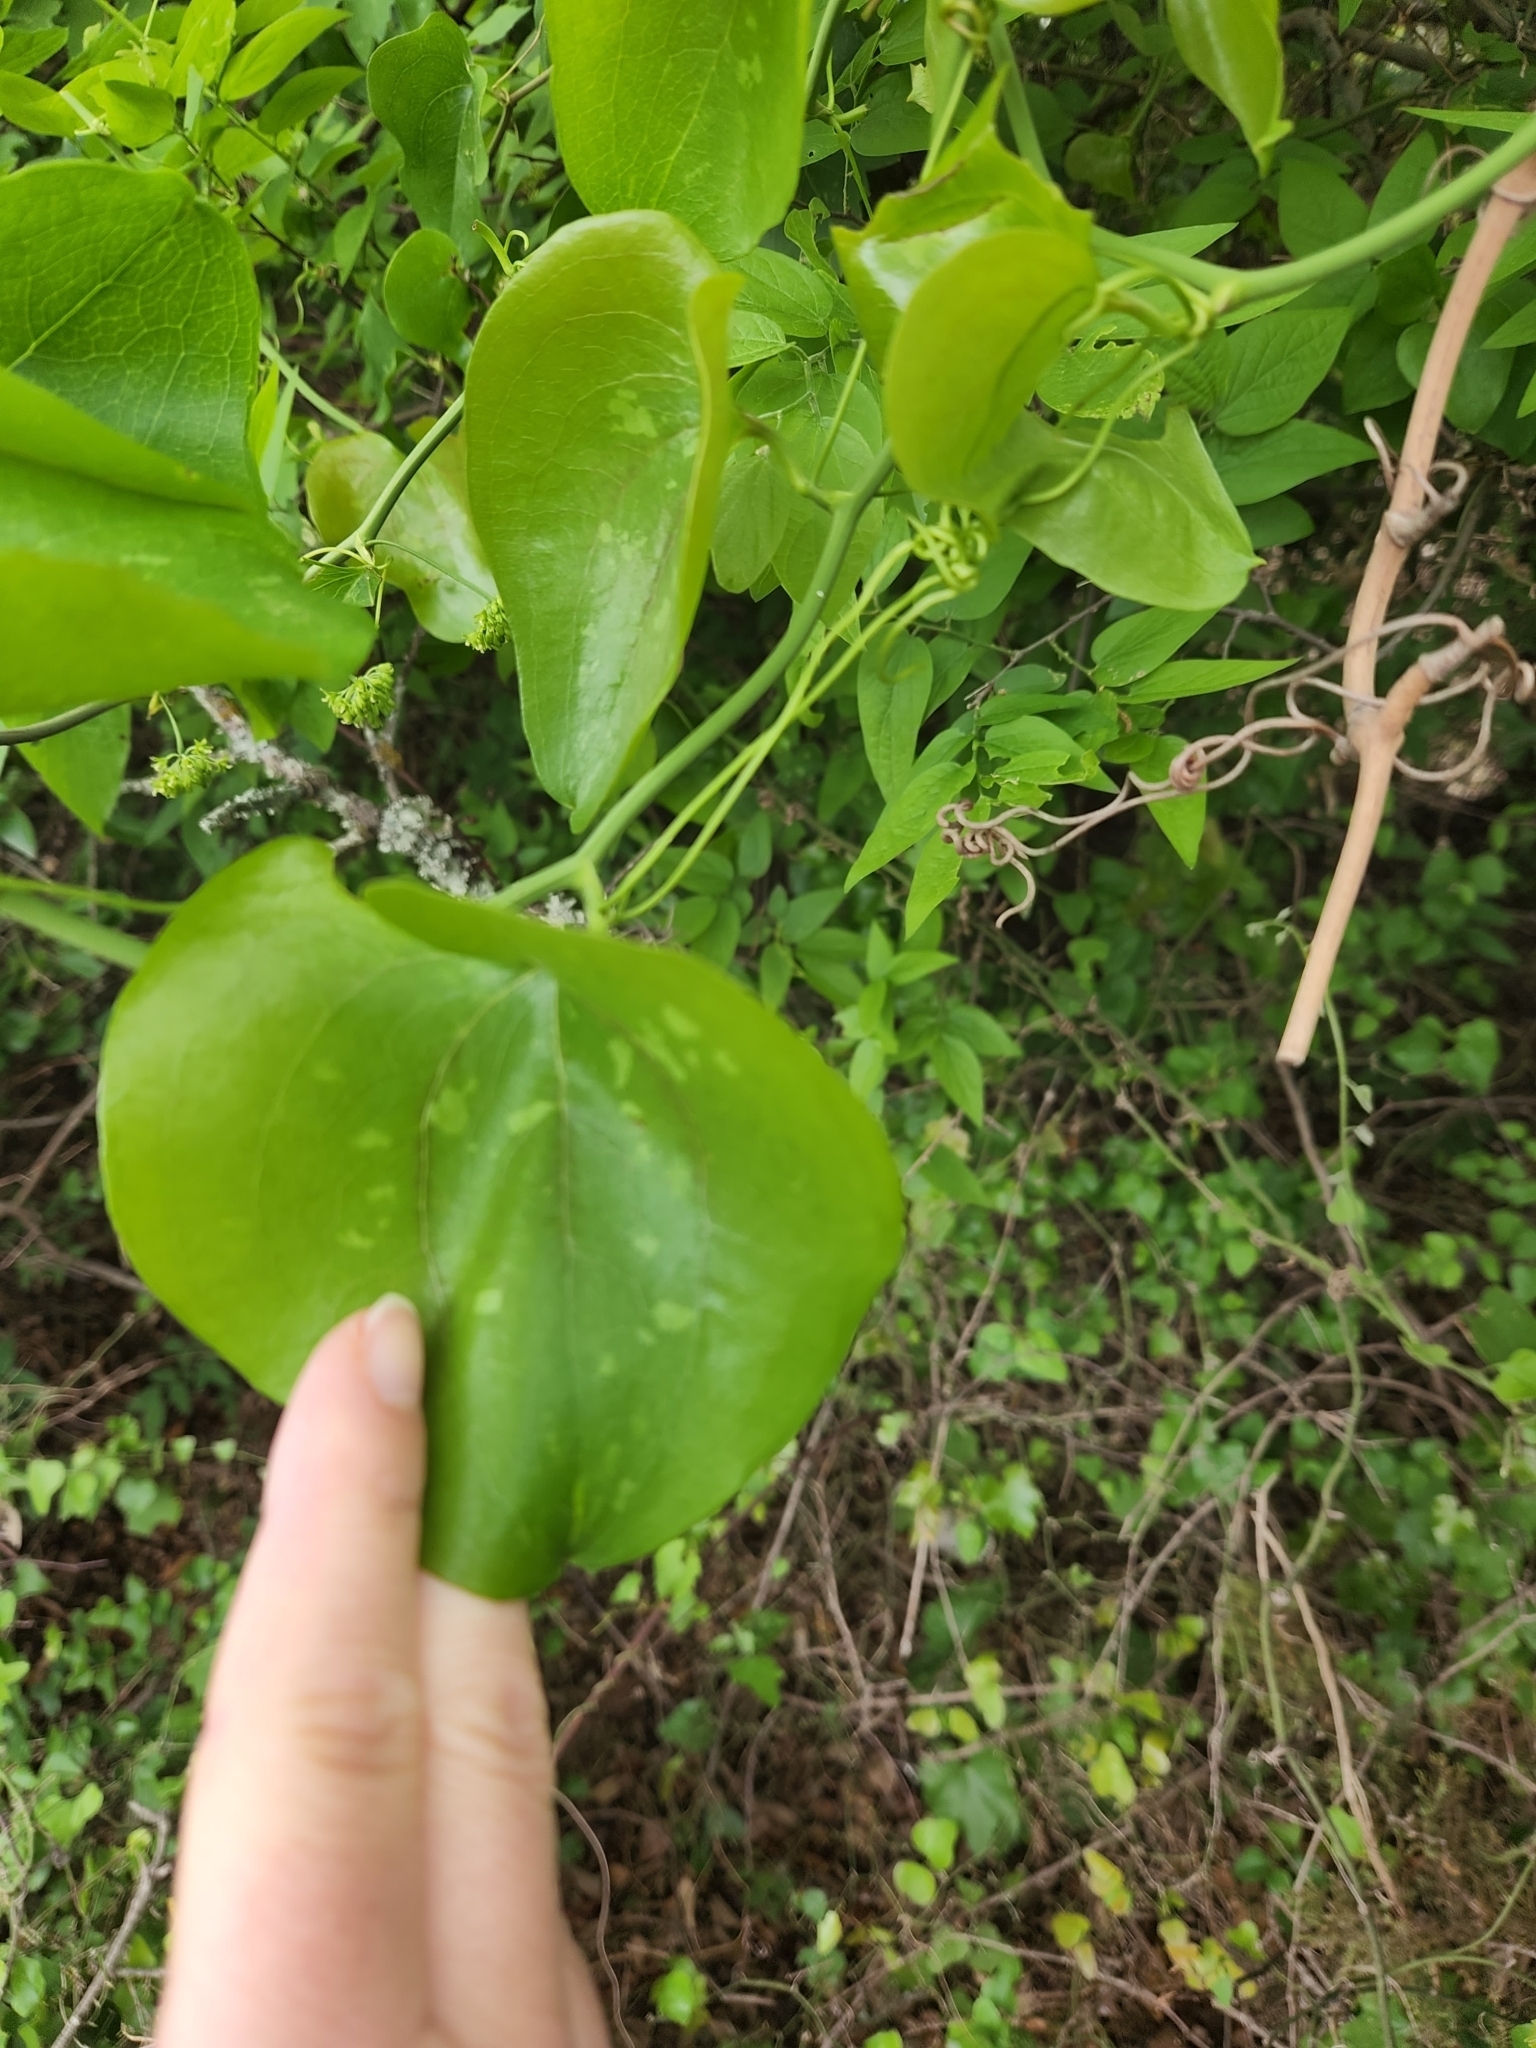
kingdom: Plantae
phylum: Tracheophyta
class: Liliopsida
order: Liliales
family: Smilacaceae
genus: Smilax
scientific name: Smilax bona-nox
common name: Catbrier
